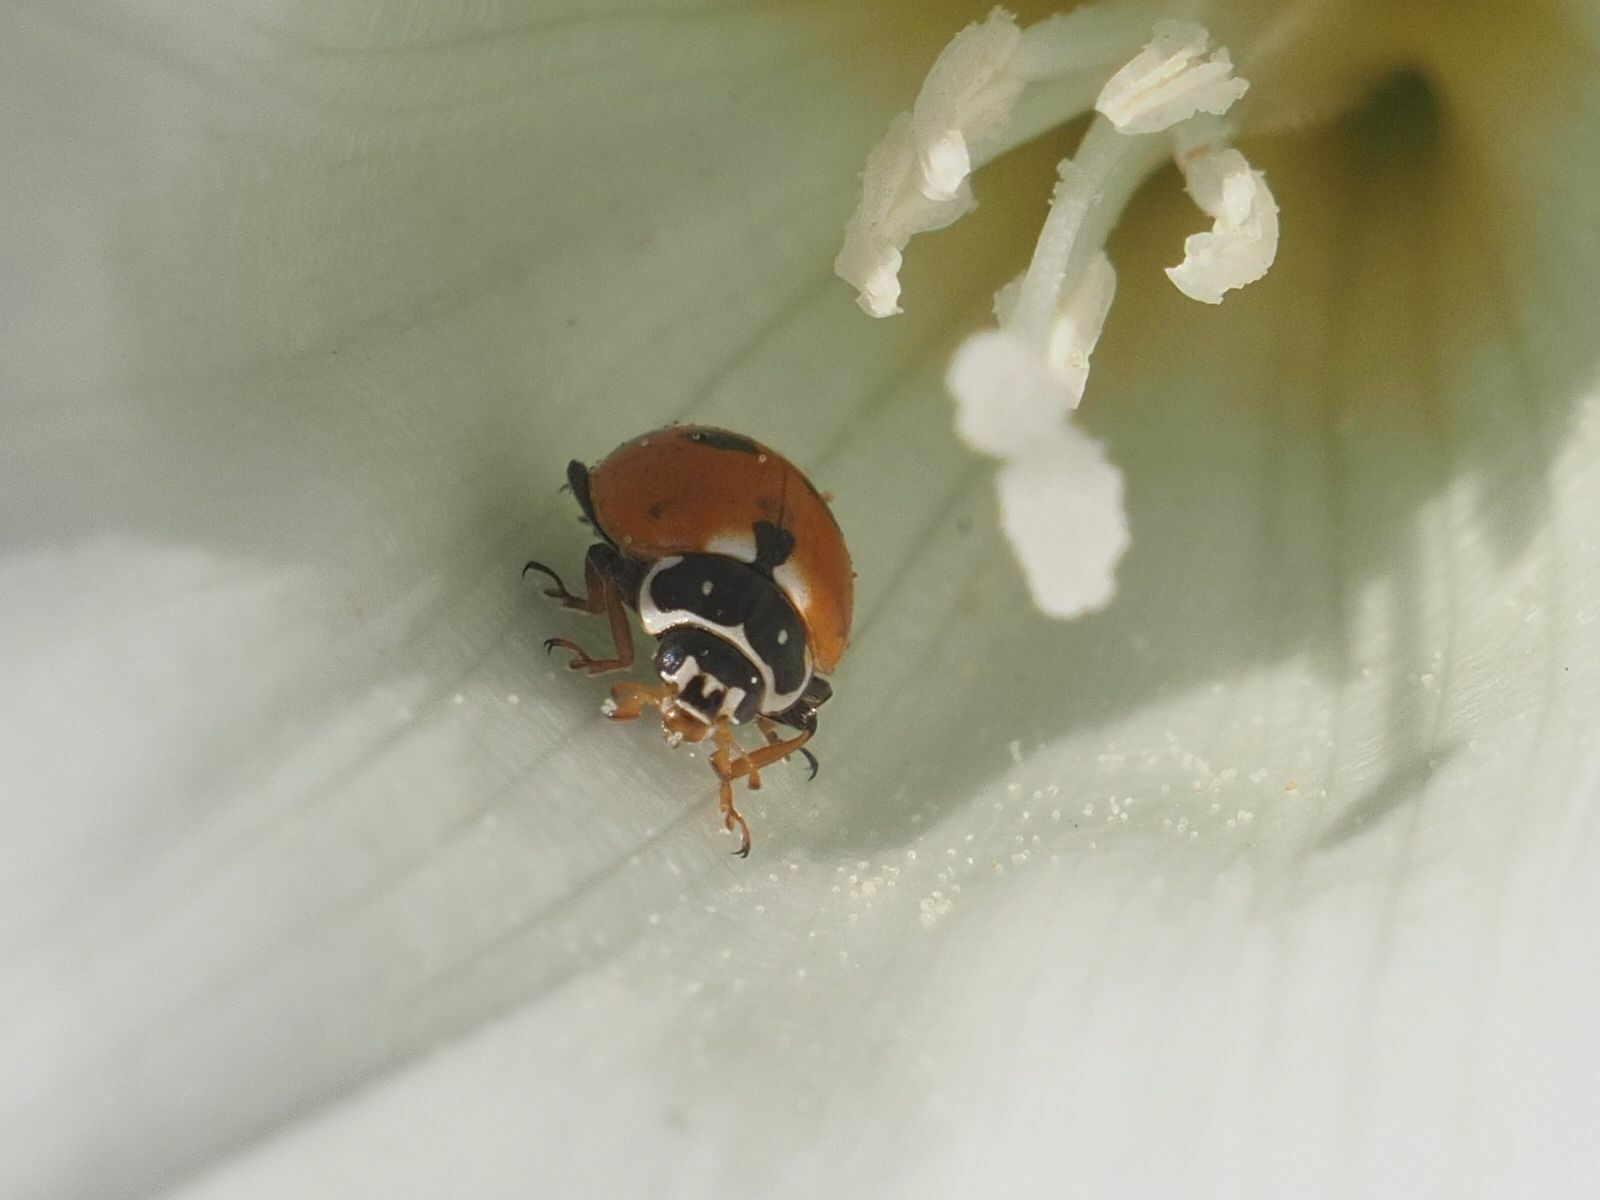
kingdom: Animalia
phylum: Arthropoda
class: Insecta
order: Coleoptera
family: Coccinellidae
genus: Hippodamia
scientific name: Hippodamia variegata
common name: Ladybird beetle
